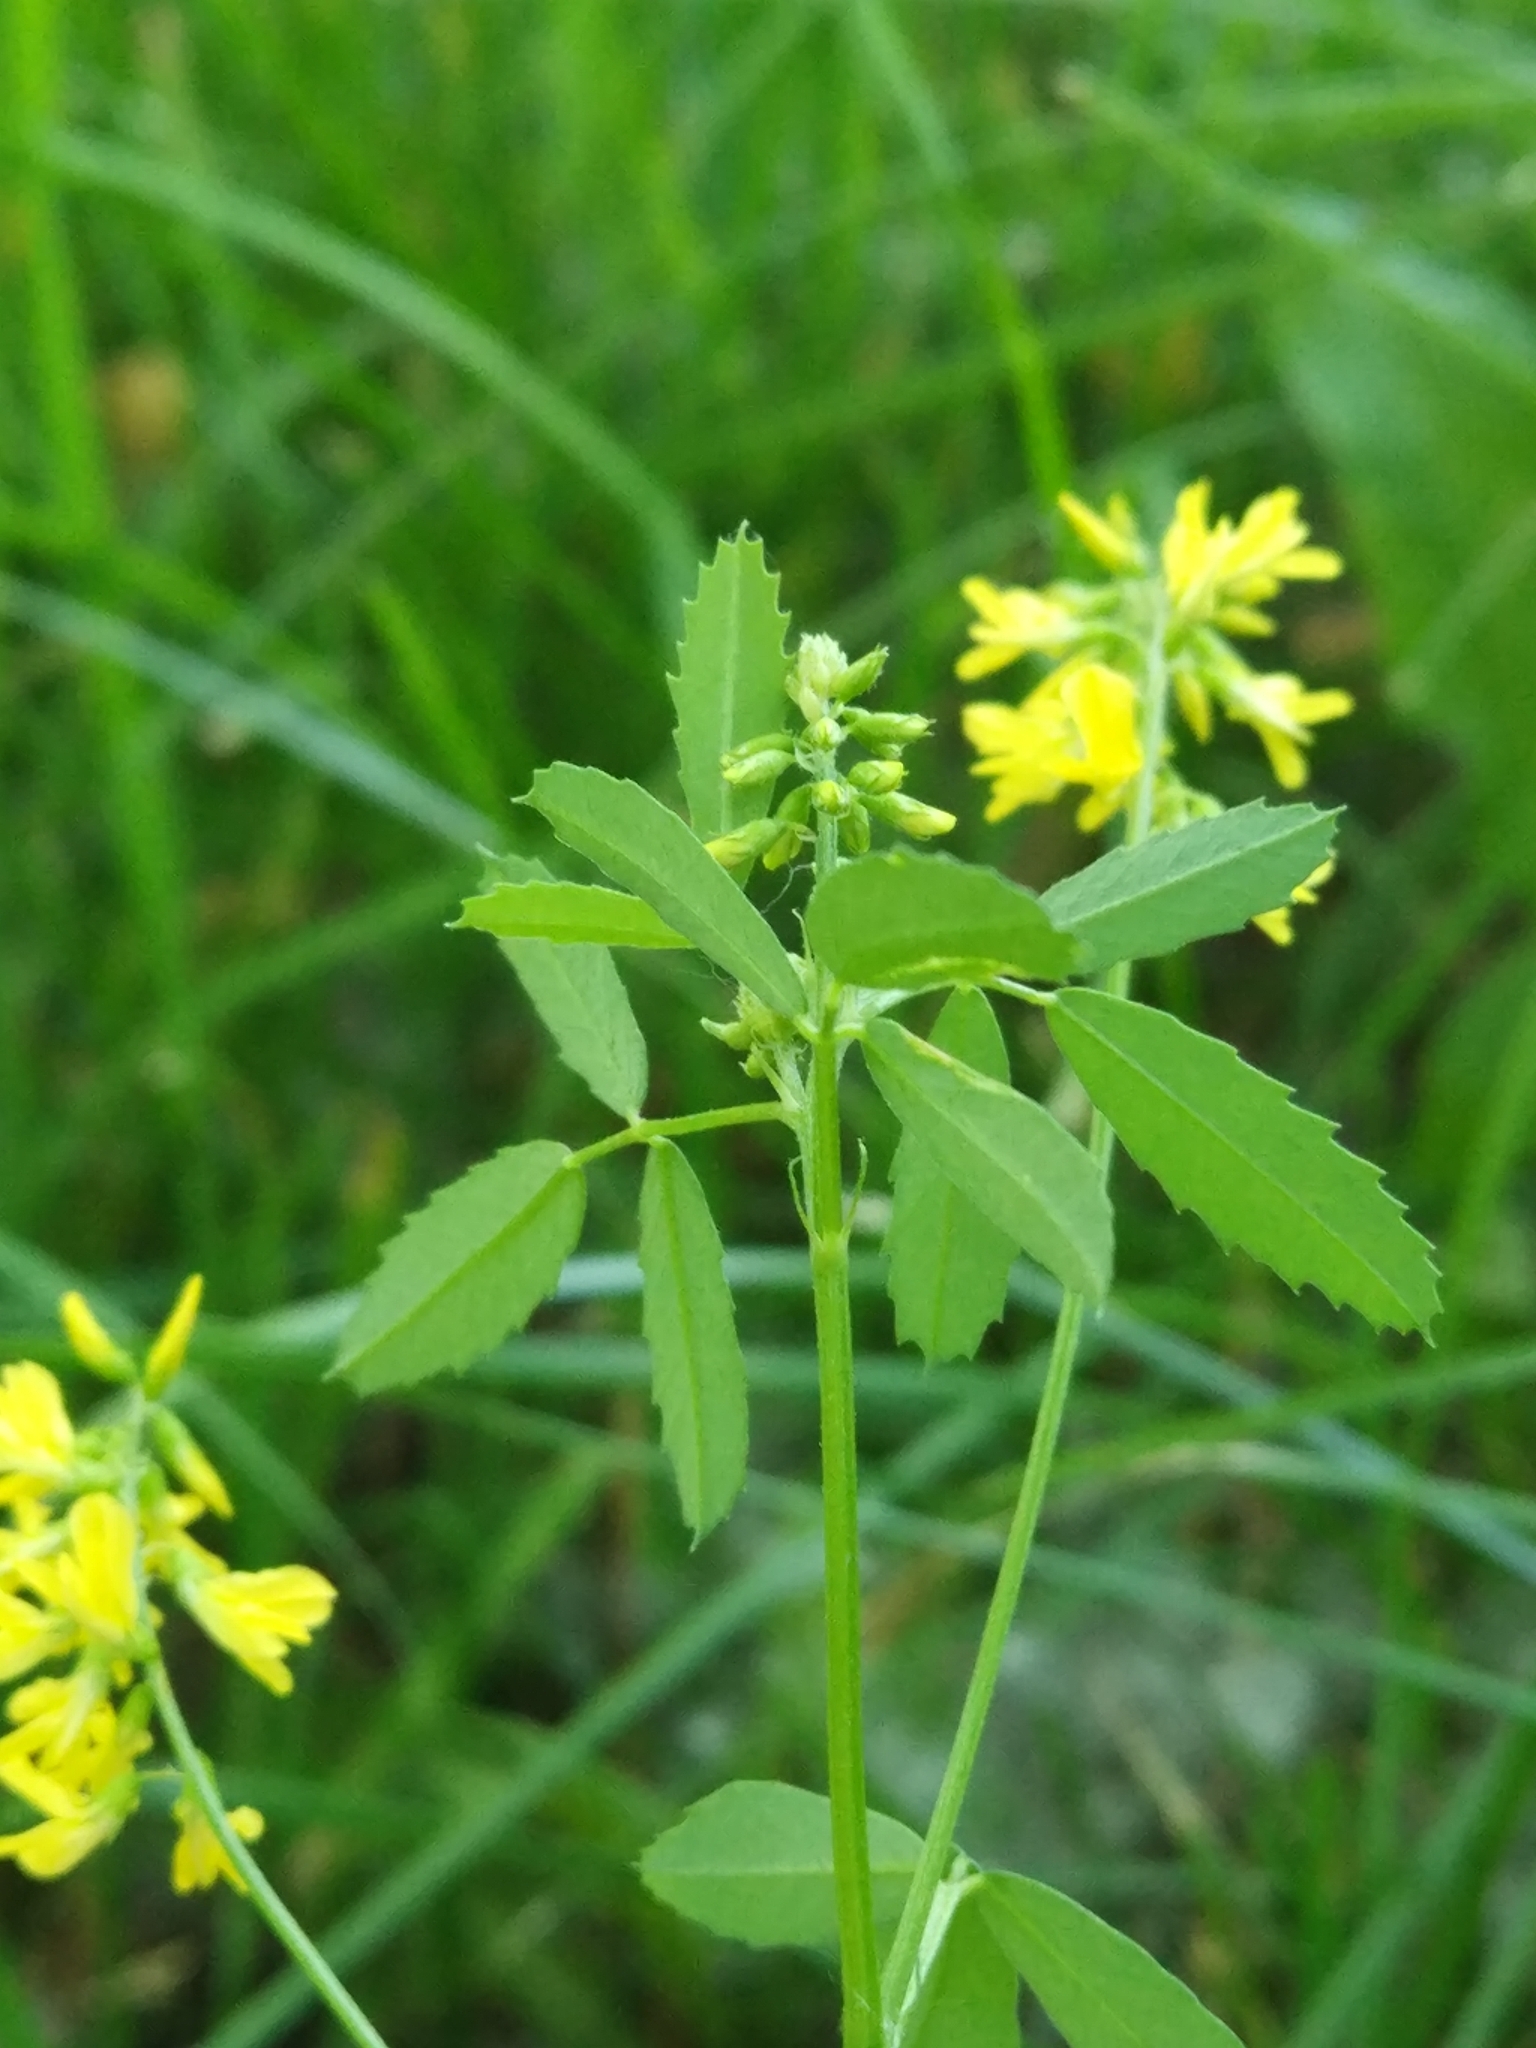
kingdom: Plantae
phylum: Tracheophyta
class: Magnoliopsida
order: Fabales
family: Fabaceae
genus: Melilotus
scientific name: Melilotus officinalis
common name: Sweetclover
